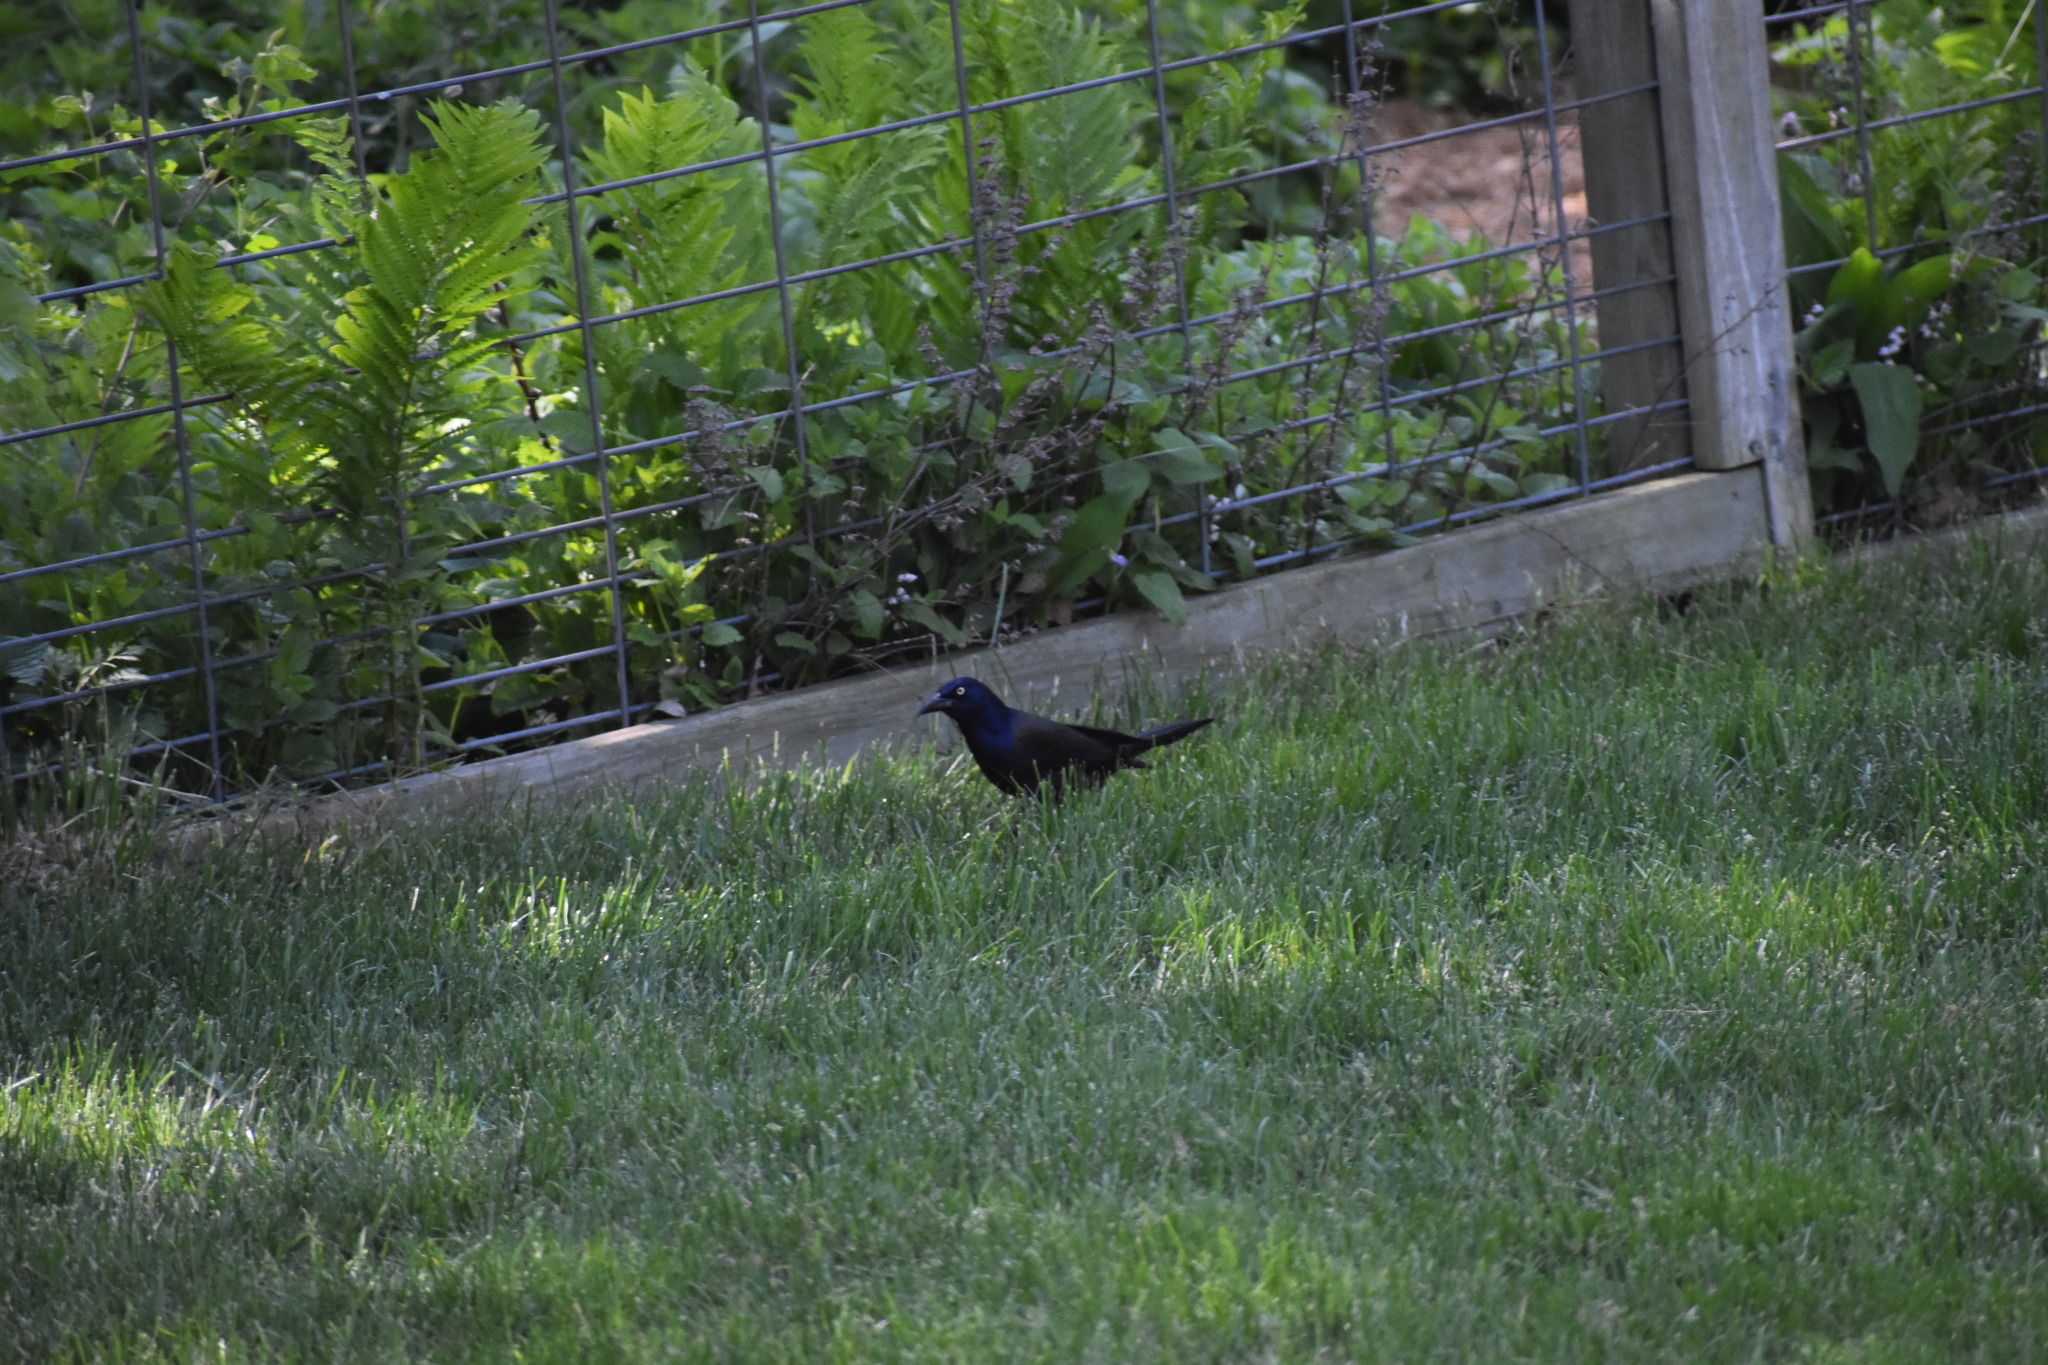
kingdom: Animalia
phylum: Chordata
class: Aves
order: Passeriformes
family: Icteridae
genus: Quiscalus
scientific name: Quiscalus quiscula
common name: Common grackle
